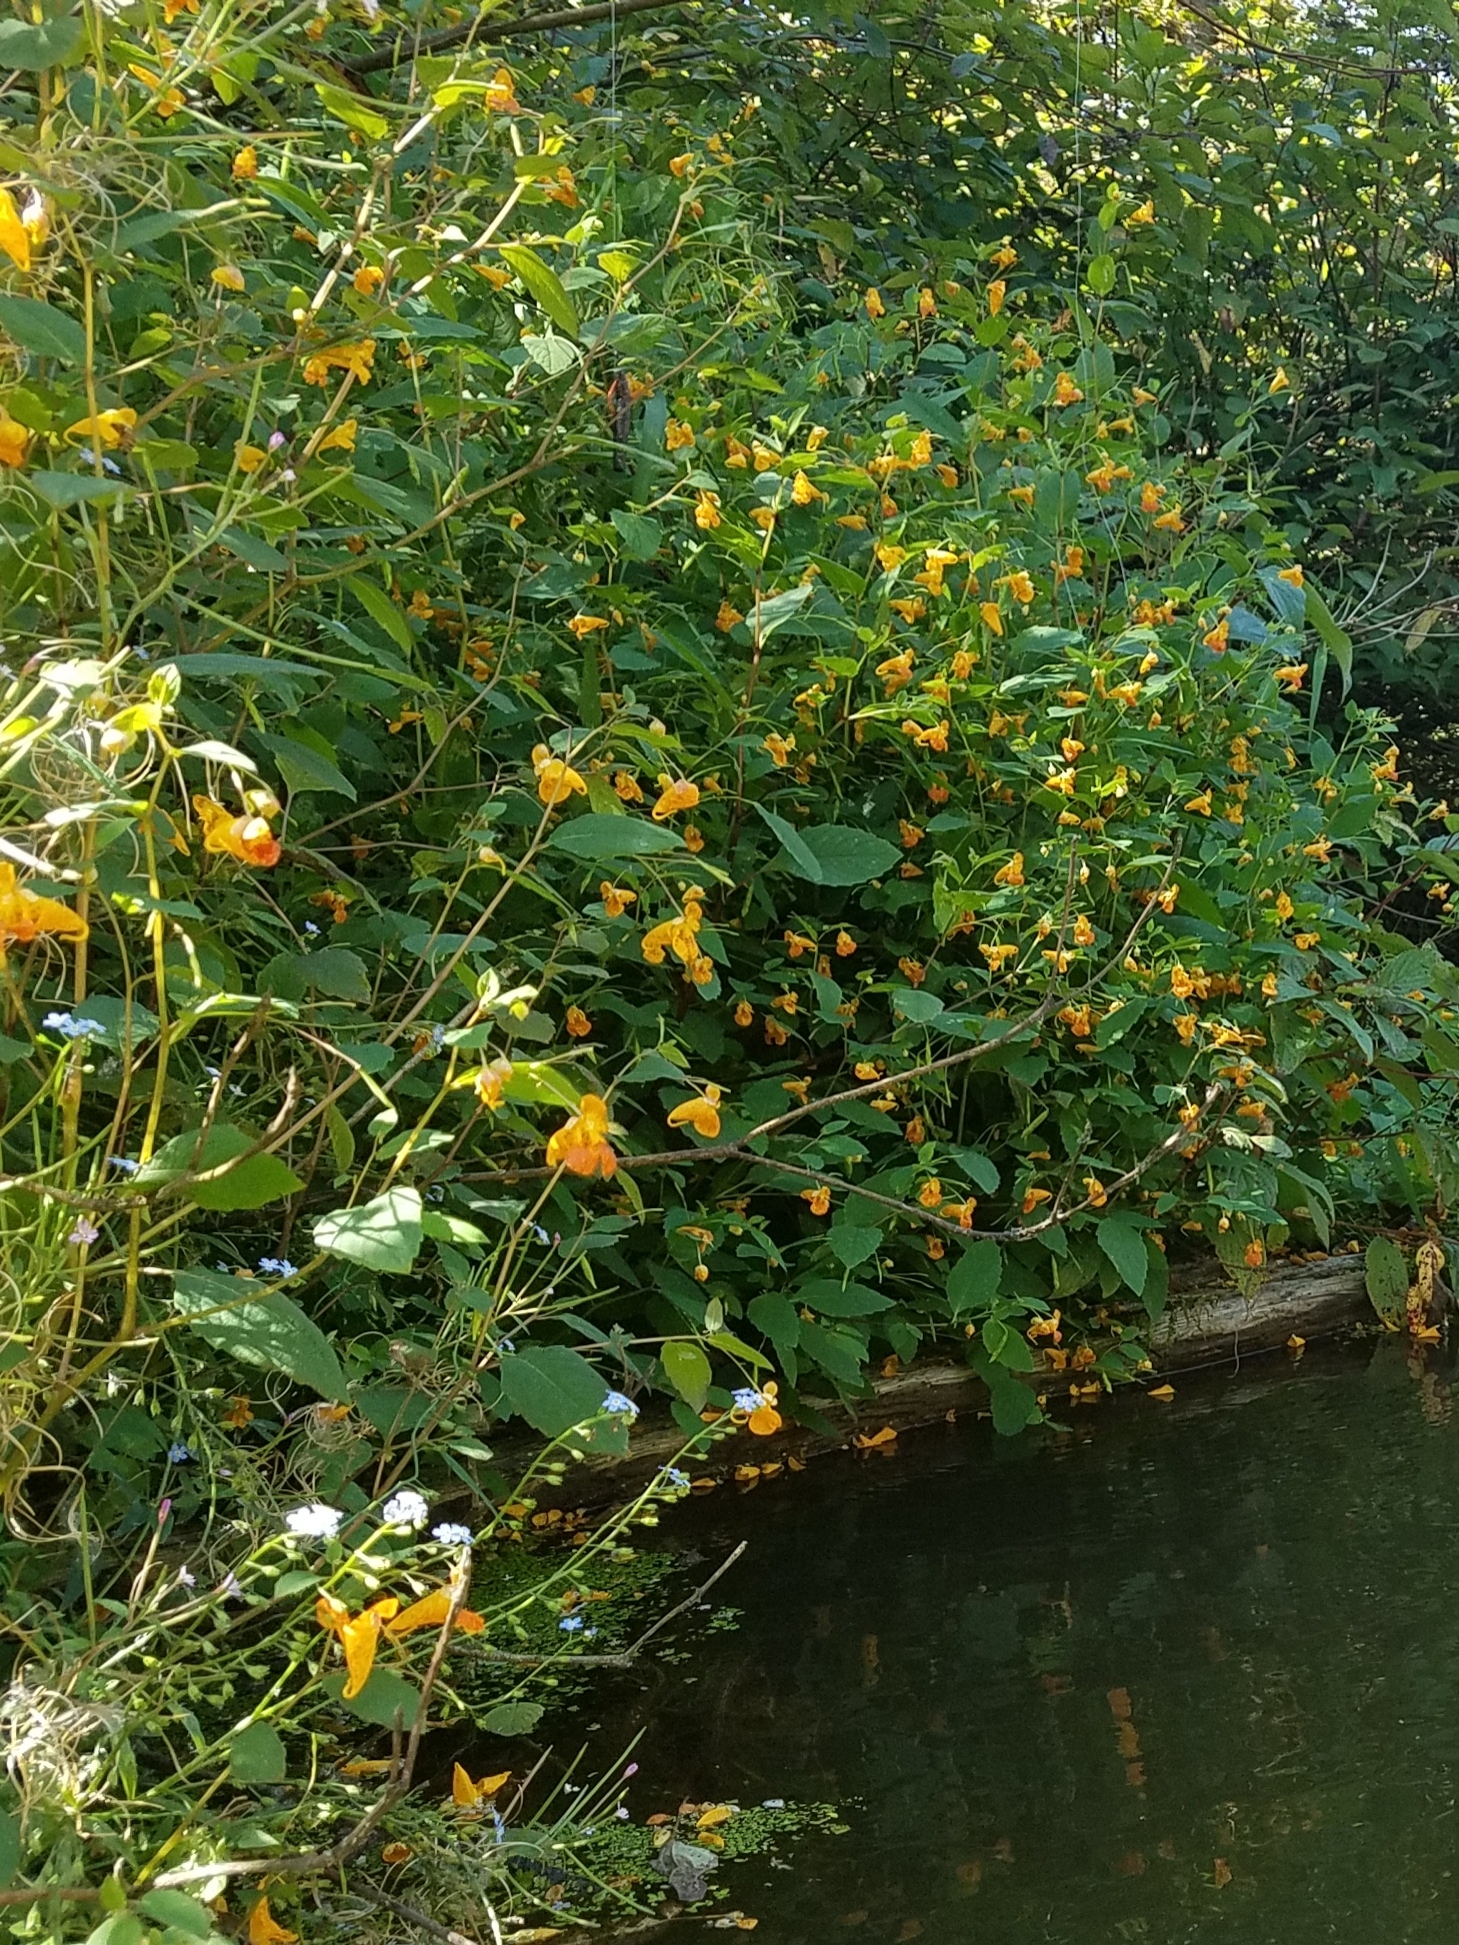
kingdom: Plantae
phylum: Tracheophyta
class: Magnoliopsida
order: Ericales
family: Balsaminaceae
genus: Impatiens
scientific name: Impatiens capensis
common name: Orange balsam
